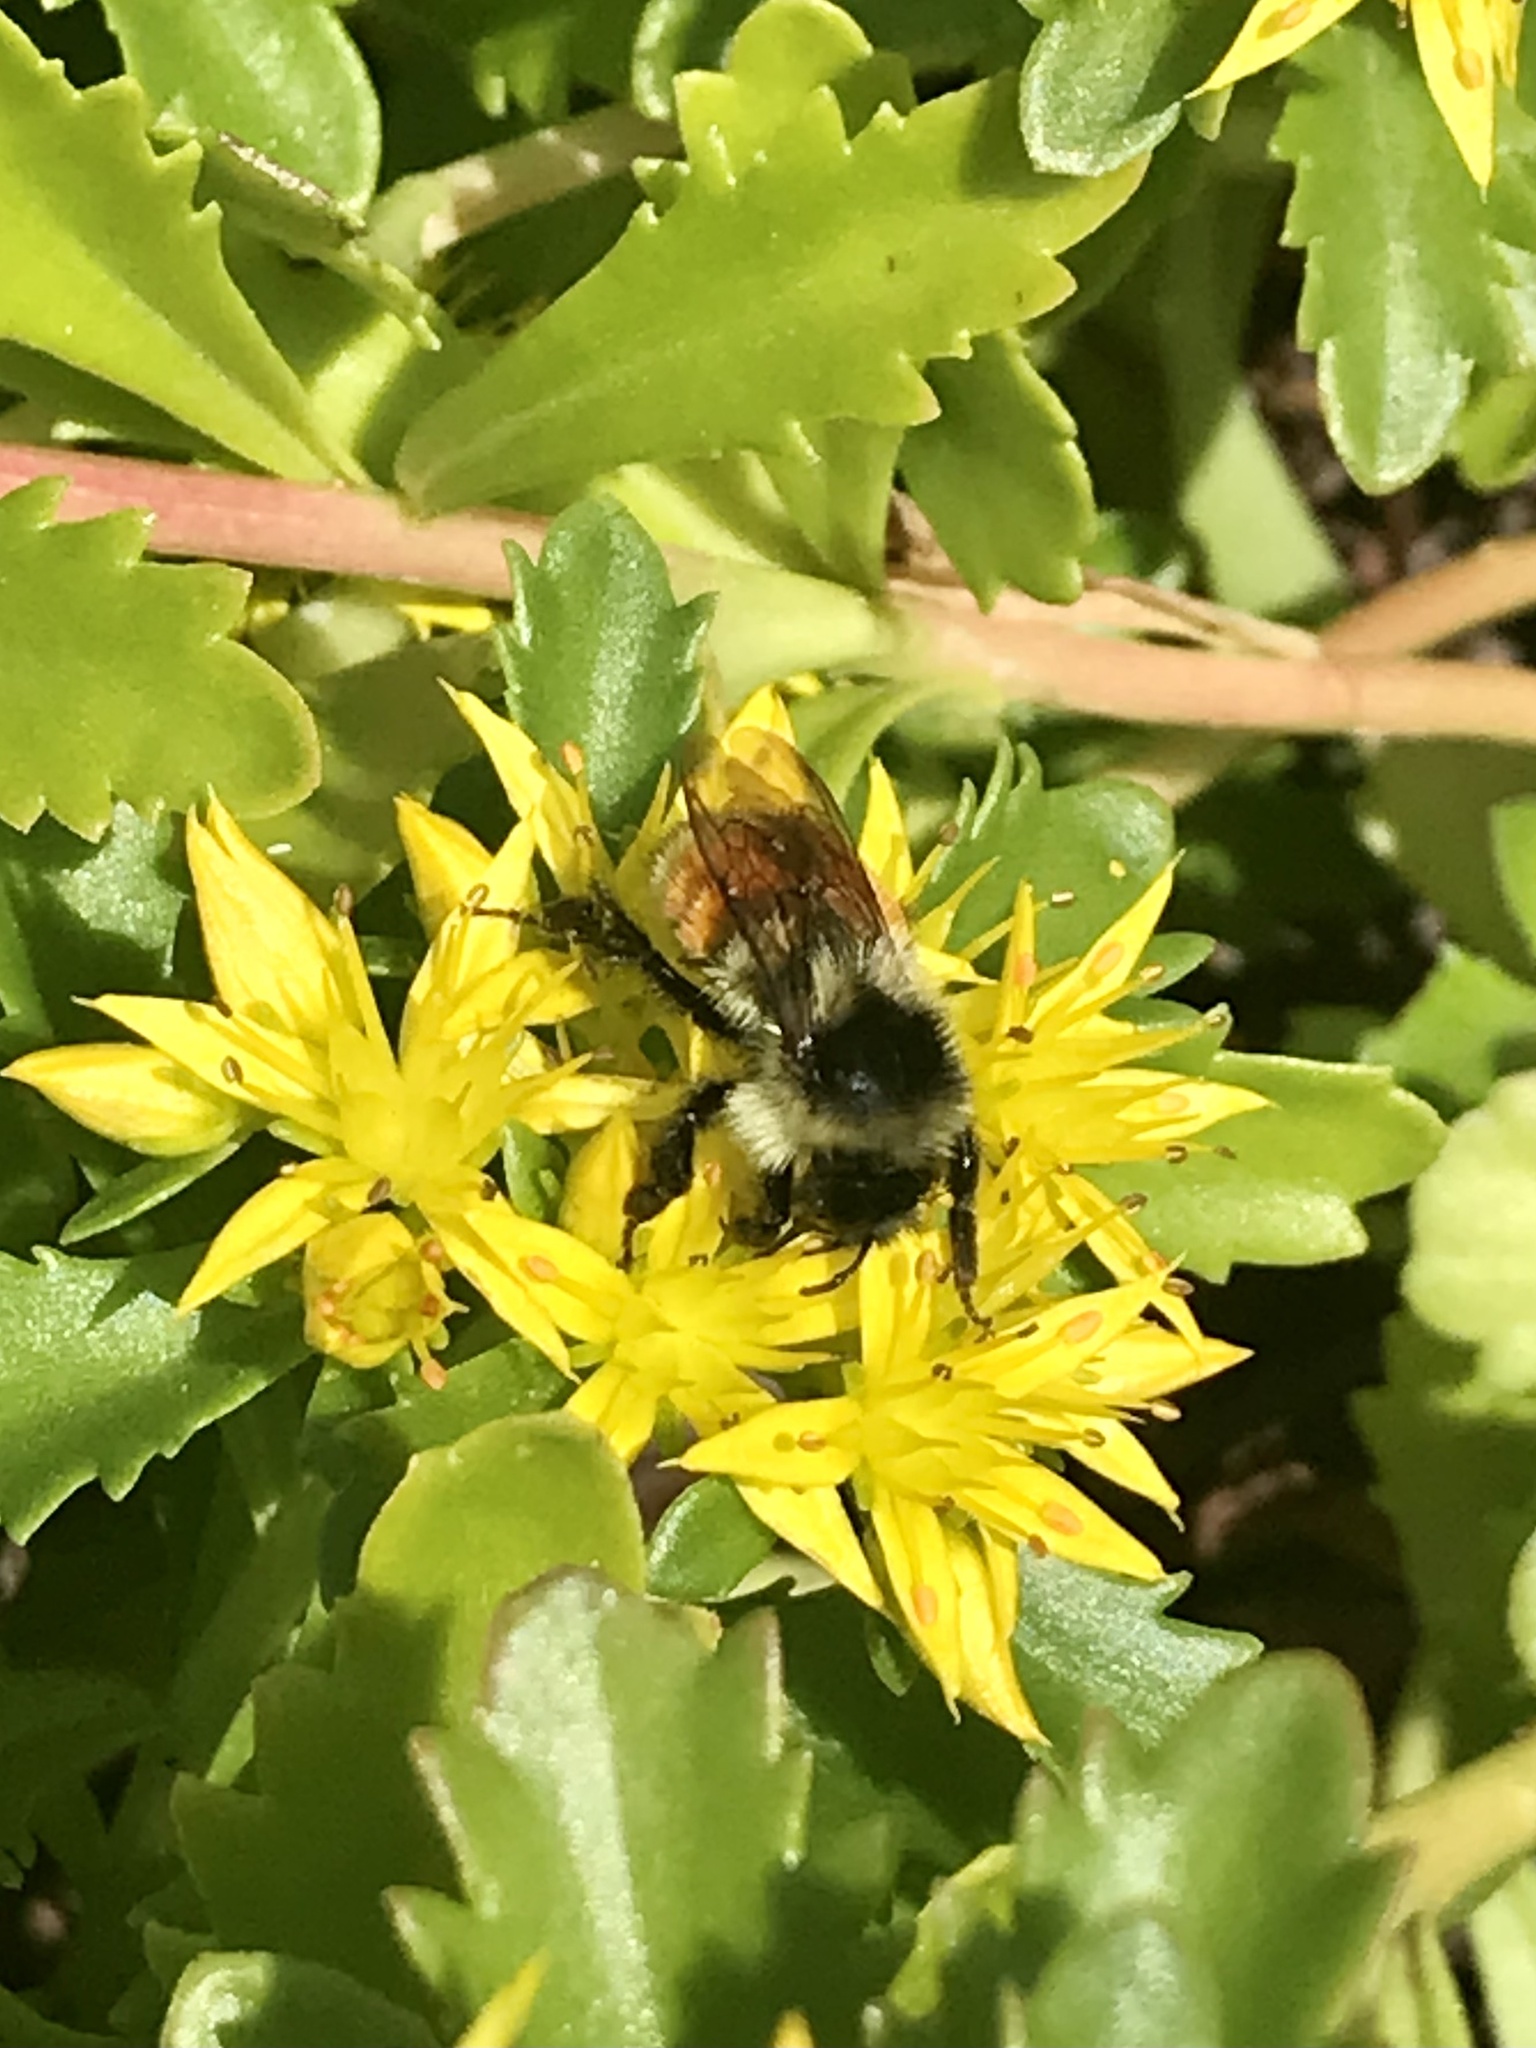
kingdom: Animalia
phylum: Arthropoda
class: Insecta
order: Hymenoptera
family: Apidae
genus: Bombus
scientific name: Bombus ternarius
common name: Tri-colored bumble bee
